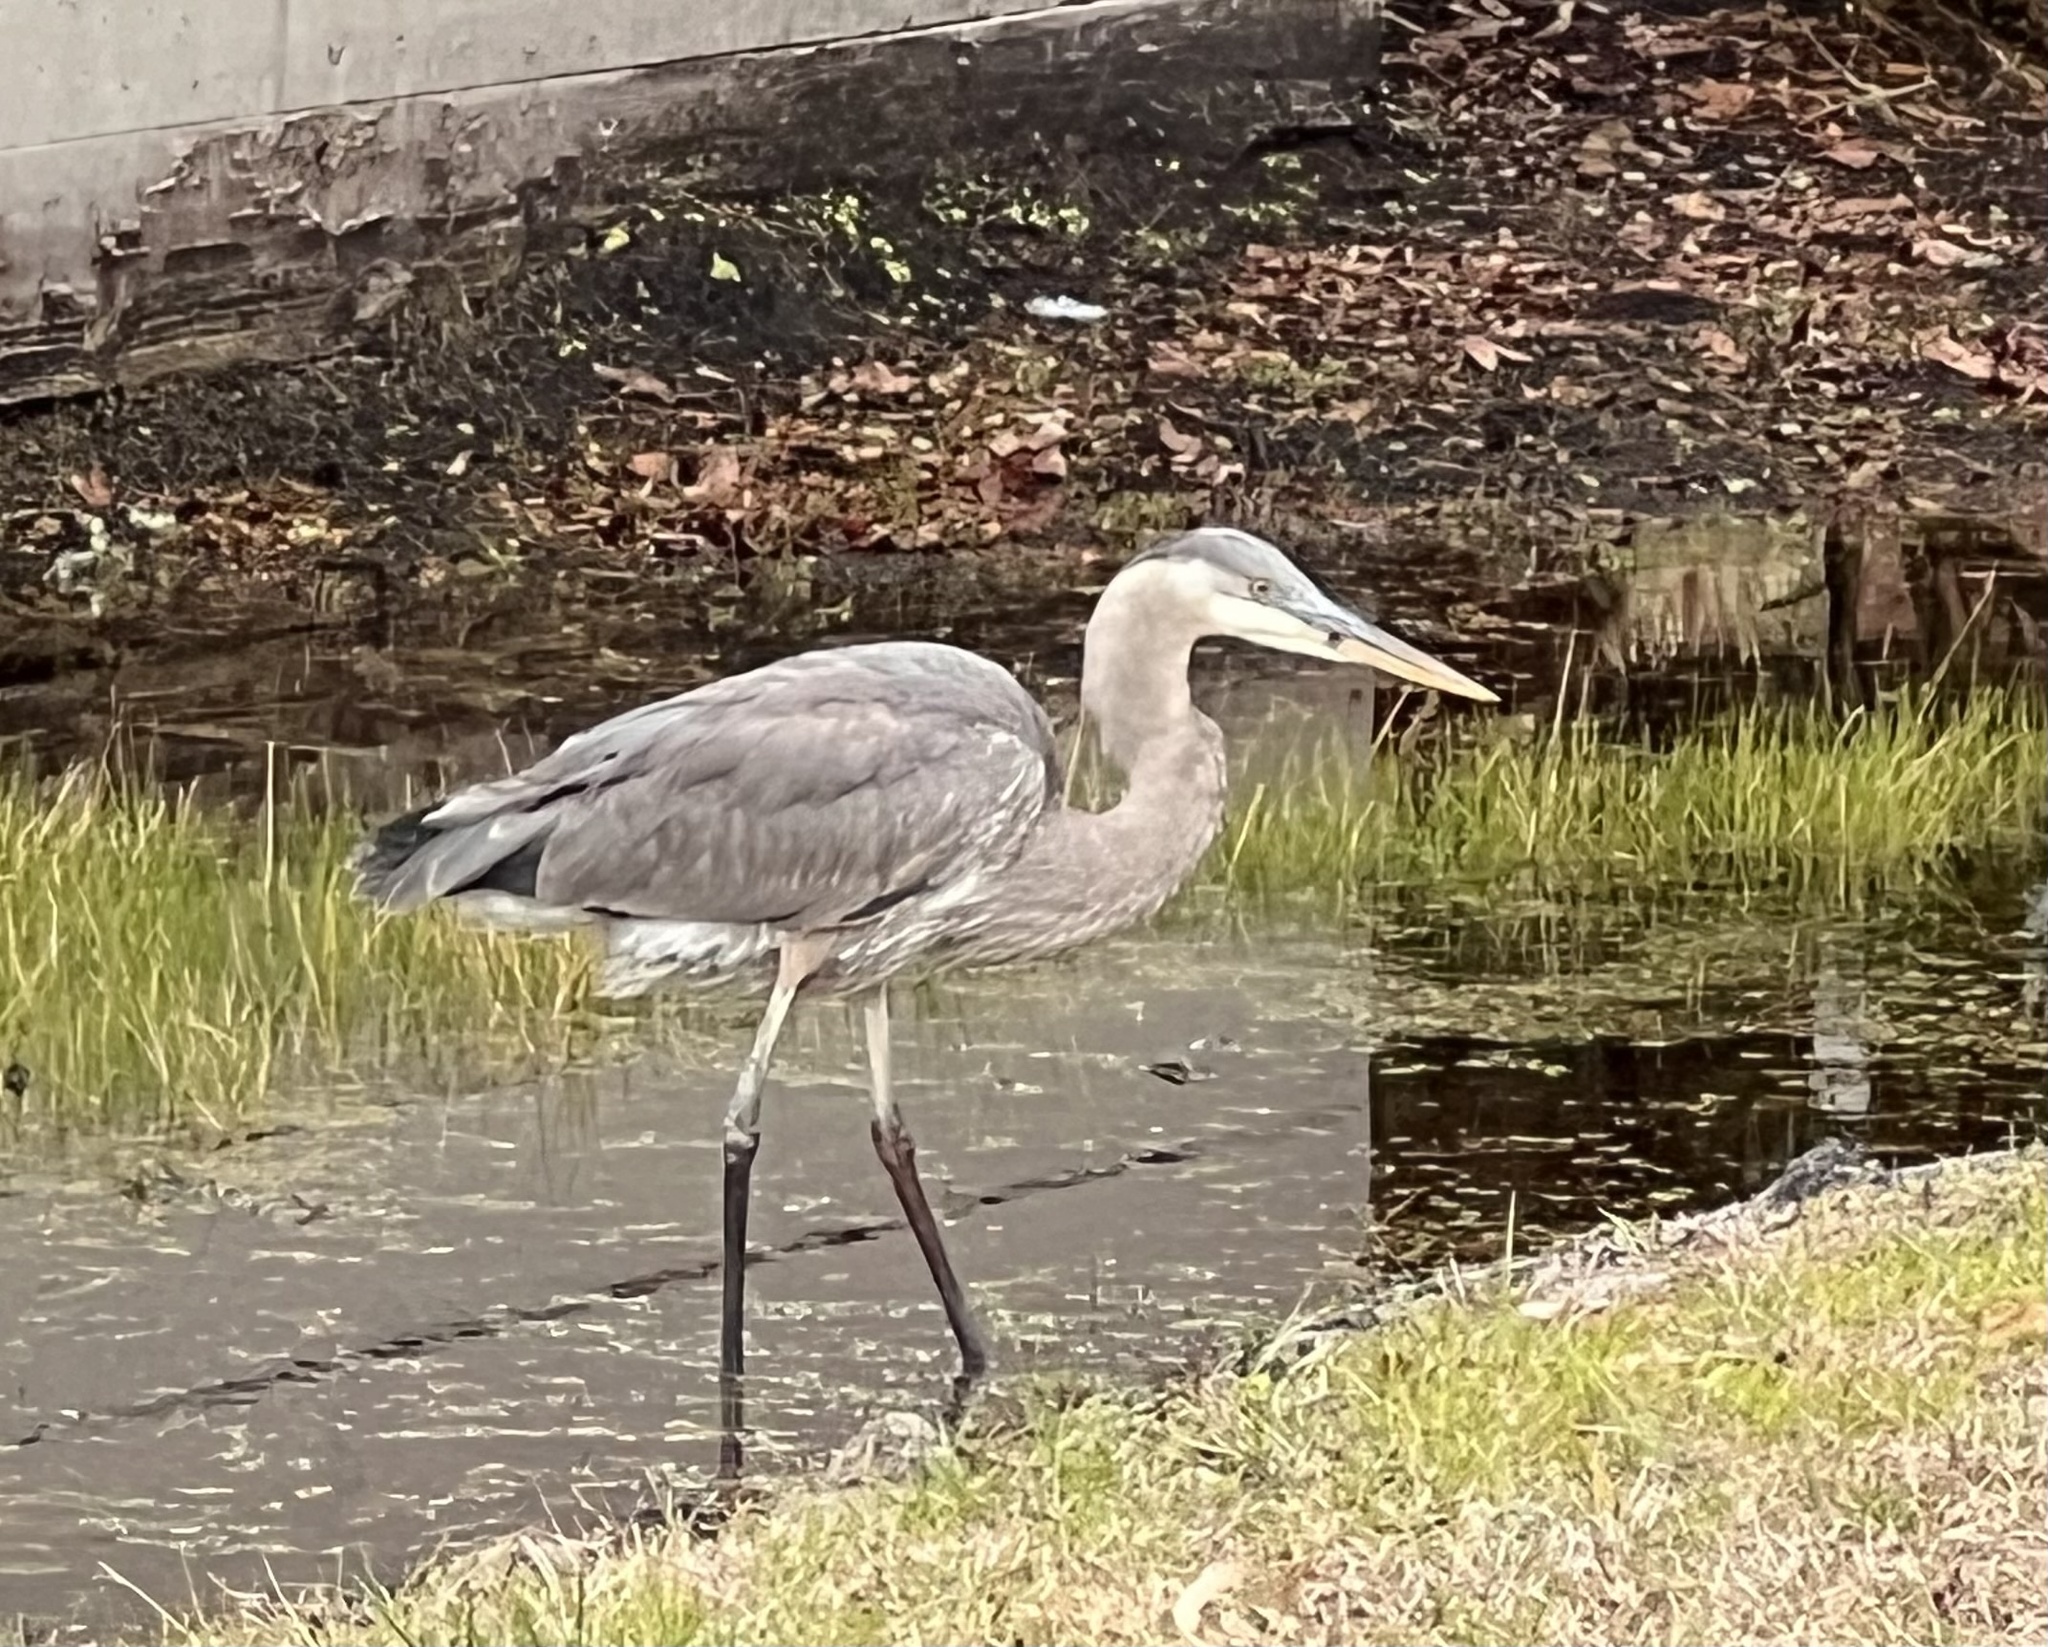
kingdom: Animalia
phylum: Chordata
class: Aves
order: Pelecaniformes
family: Ardeidae
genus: Ardea
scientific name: Ardea herodias
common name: Great blue heron
